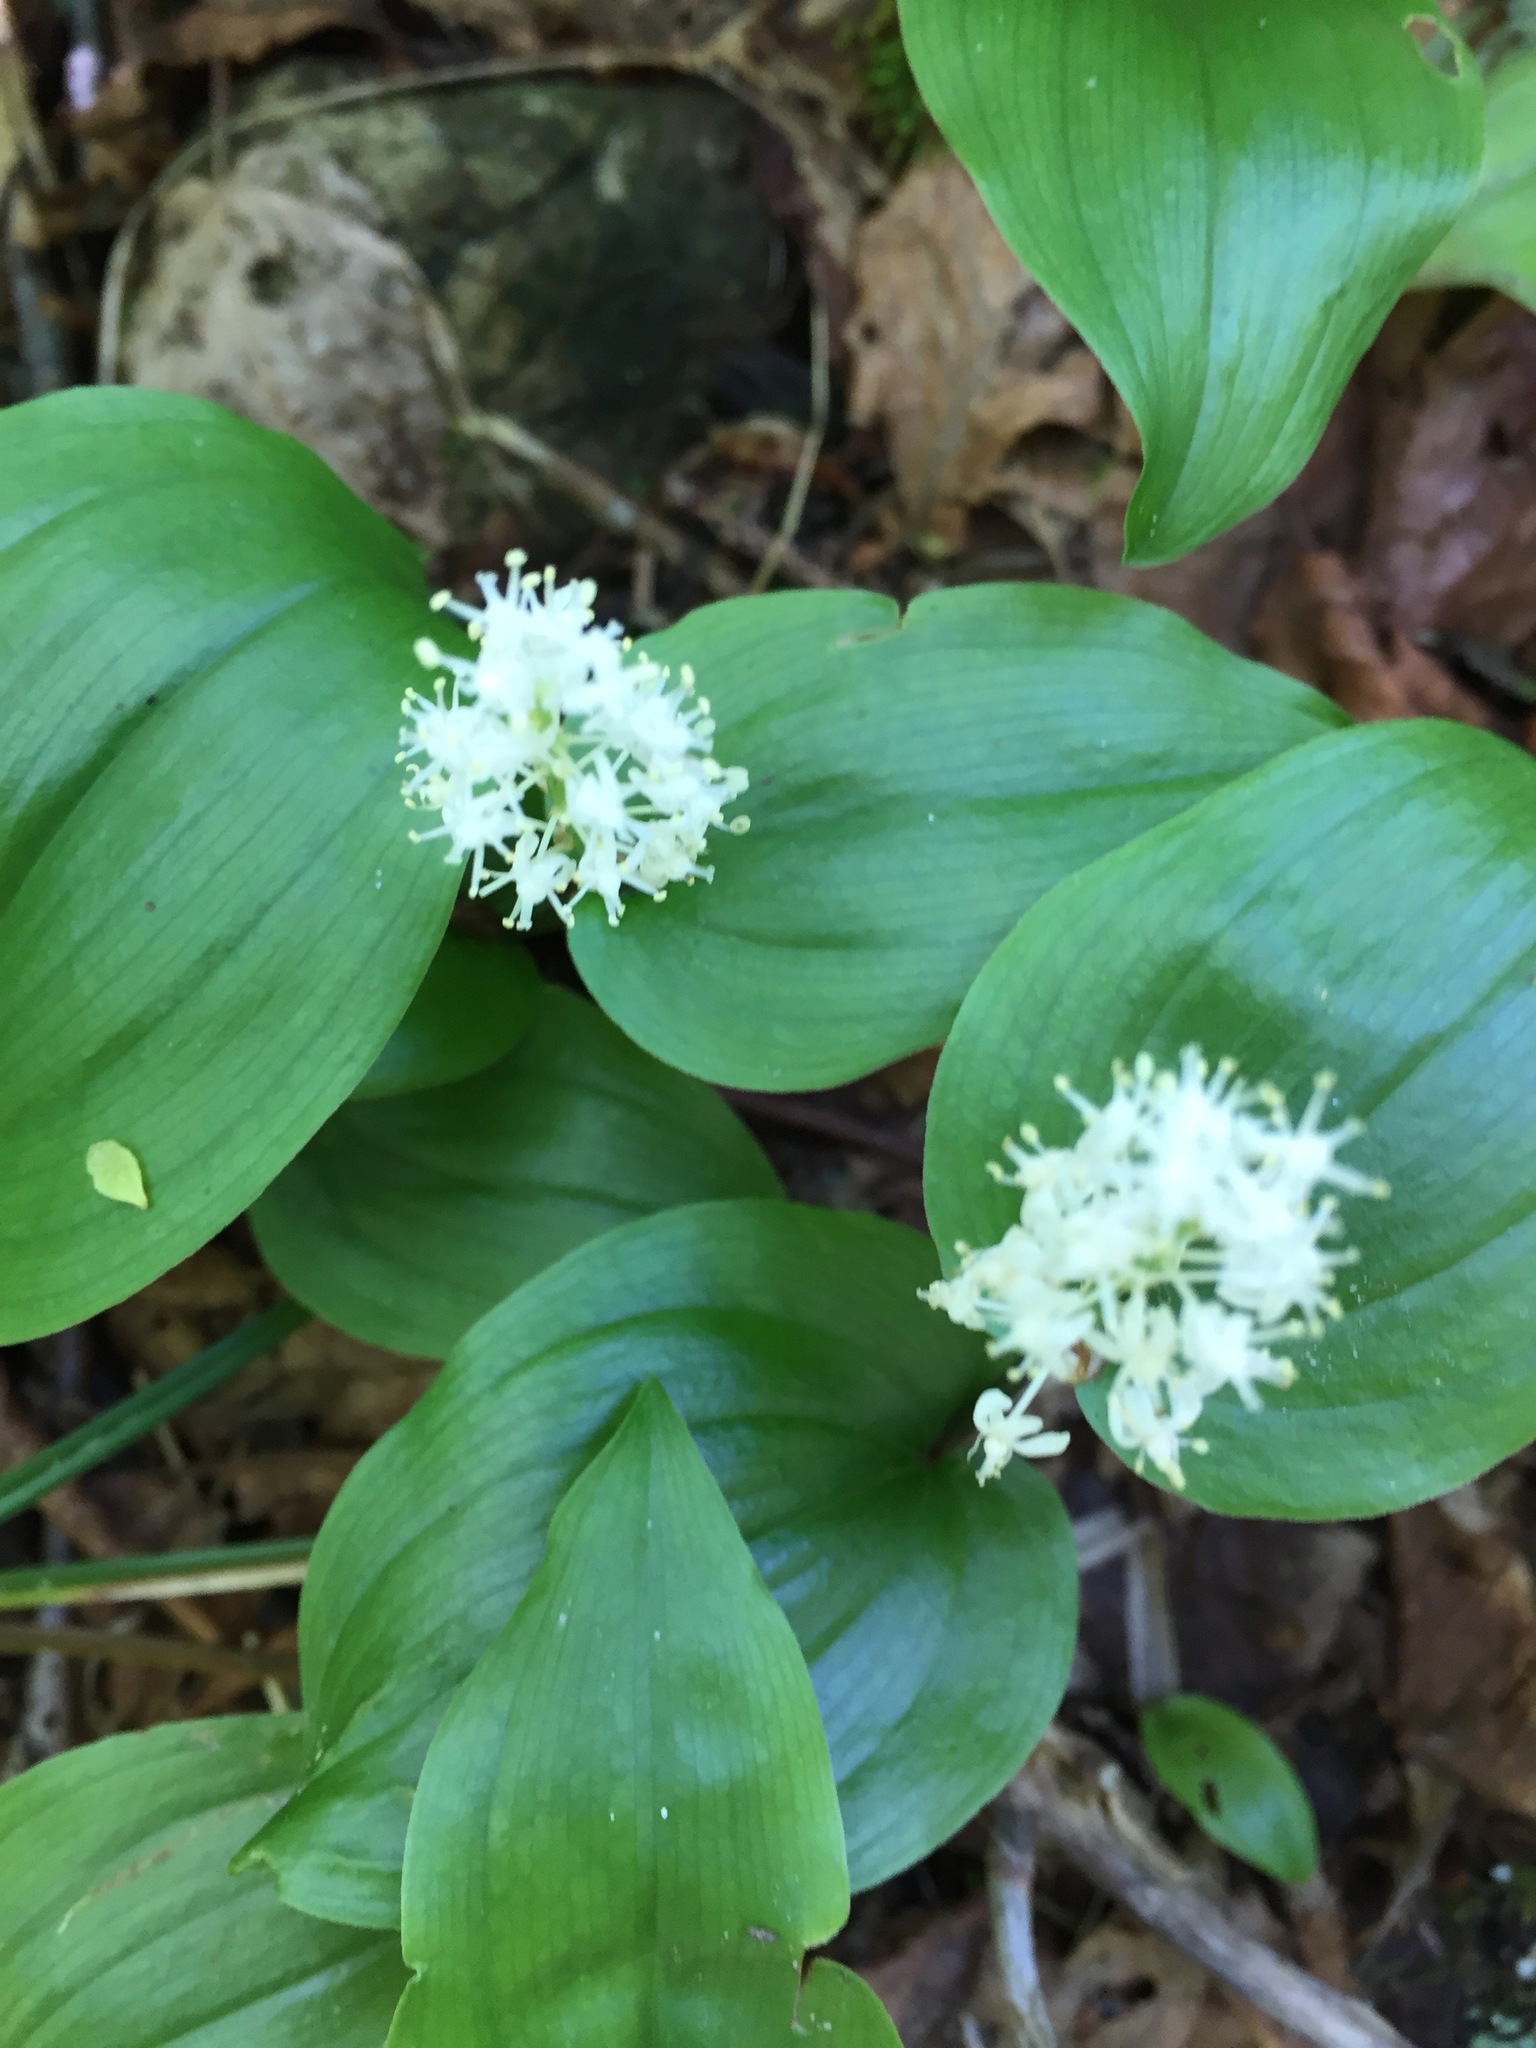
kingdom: Plantae
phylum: Tracheophyta
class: Liliopsida
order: Asparagales
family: Asparagaceae
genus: Maianthemum
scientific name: Maianthemum canadense
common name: False lily-of-the-valley
